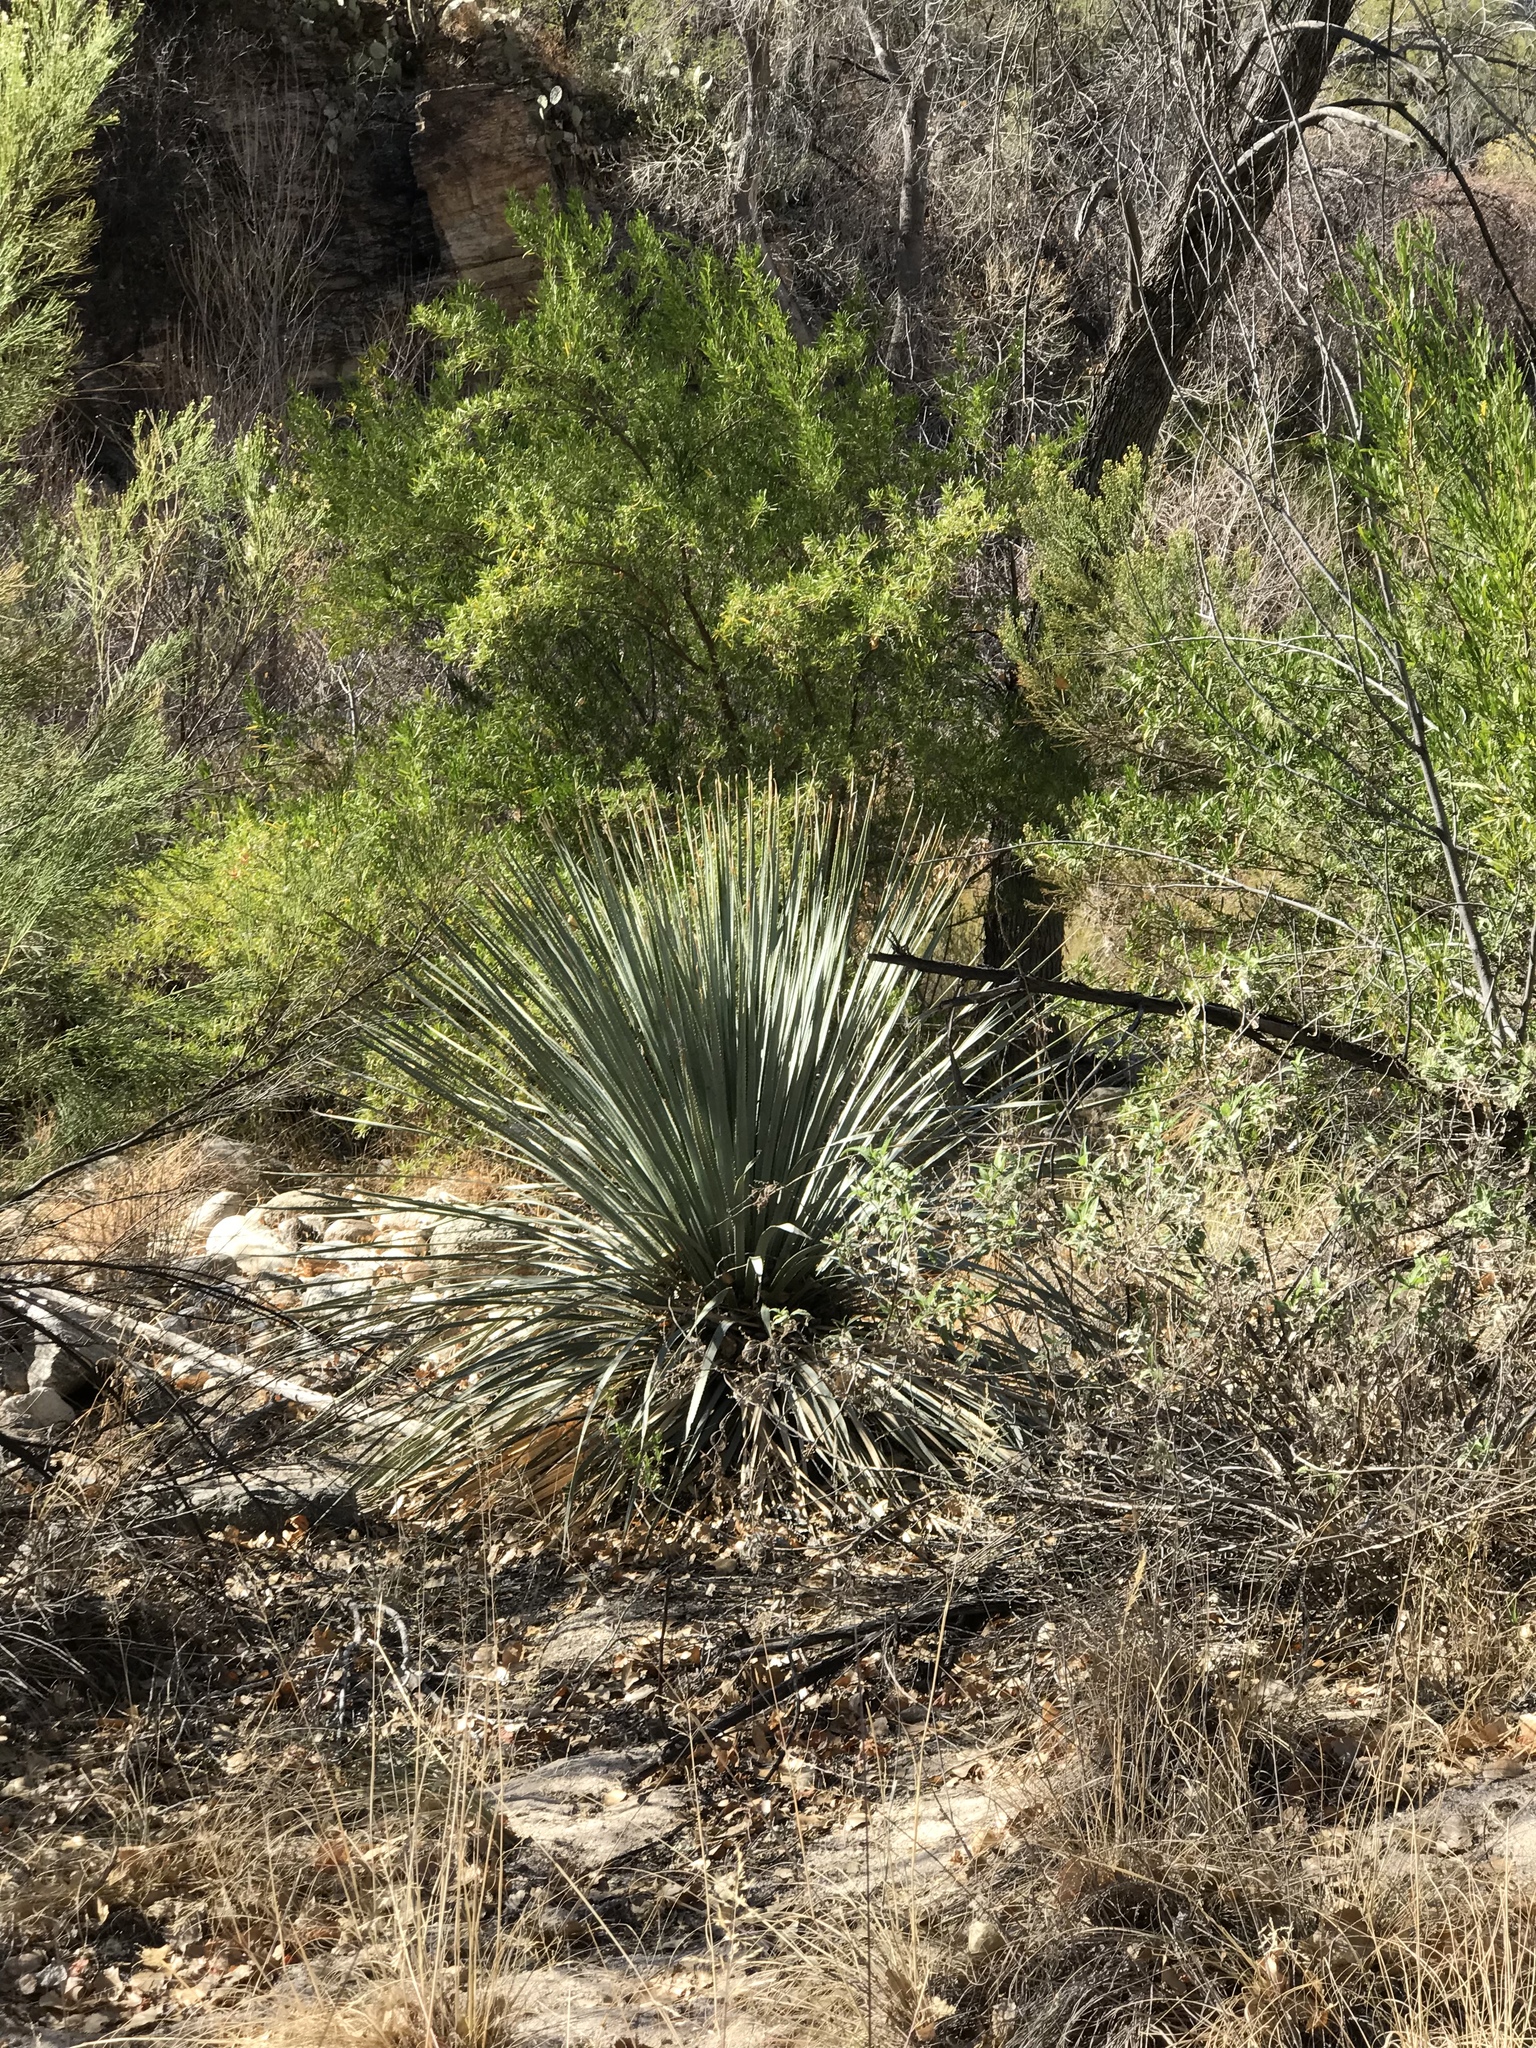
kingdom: Plantae
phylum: Tracheophyta
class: Liliopsida
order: Asparagales
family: Asparagaceae
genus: Dasylirion
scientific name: Dasylirion wheeleri
